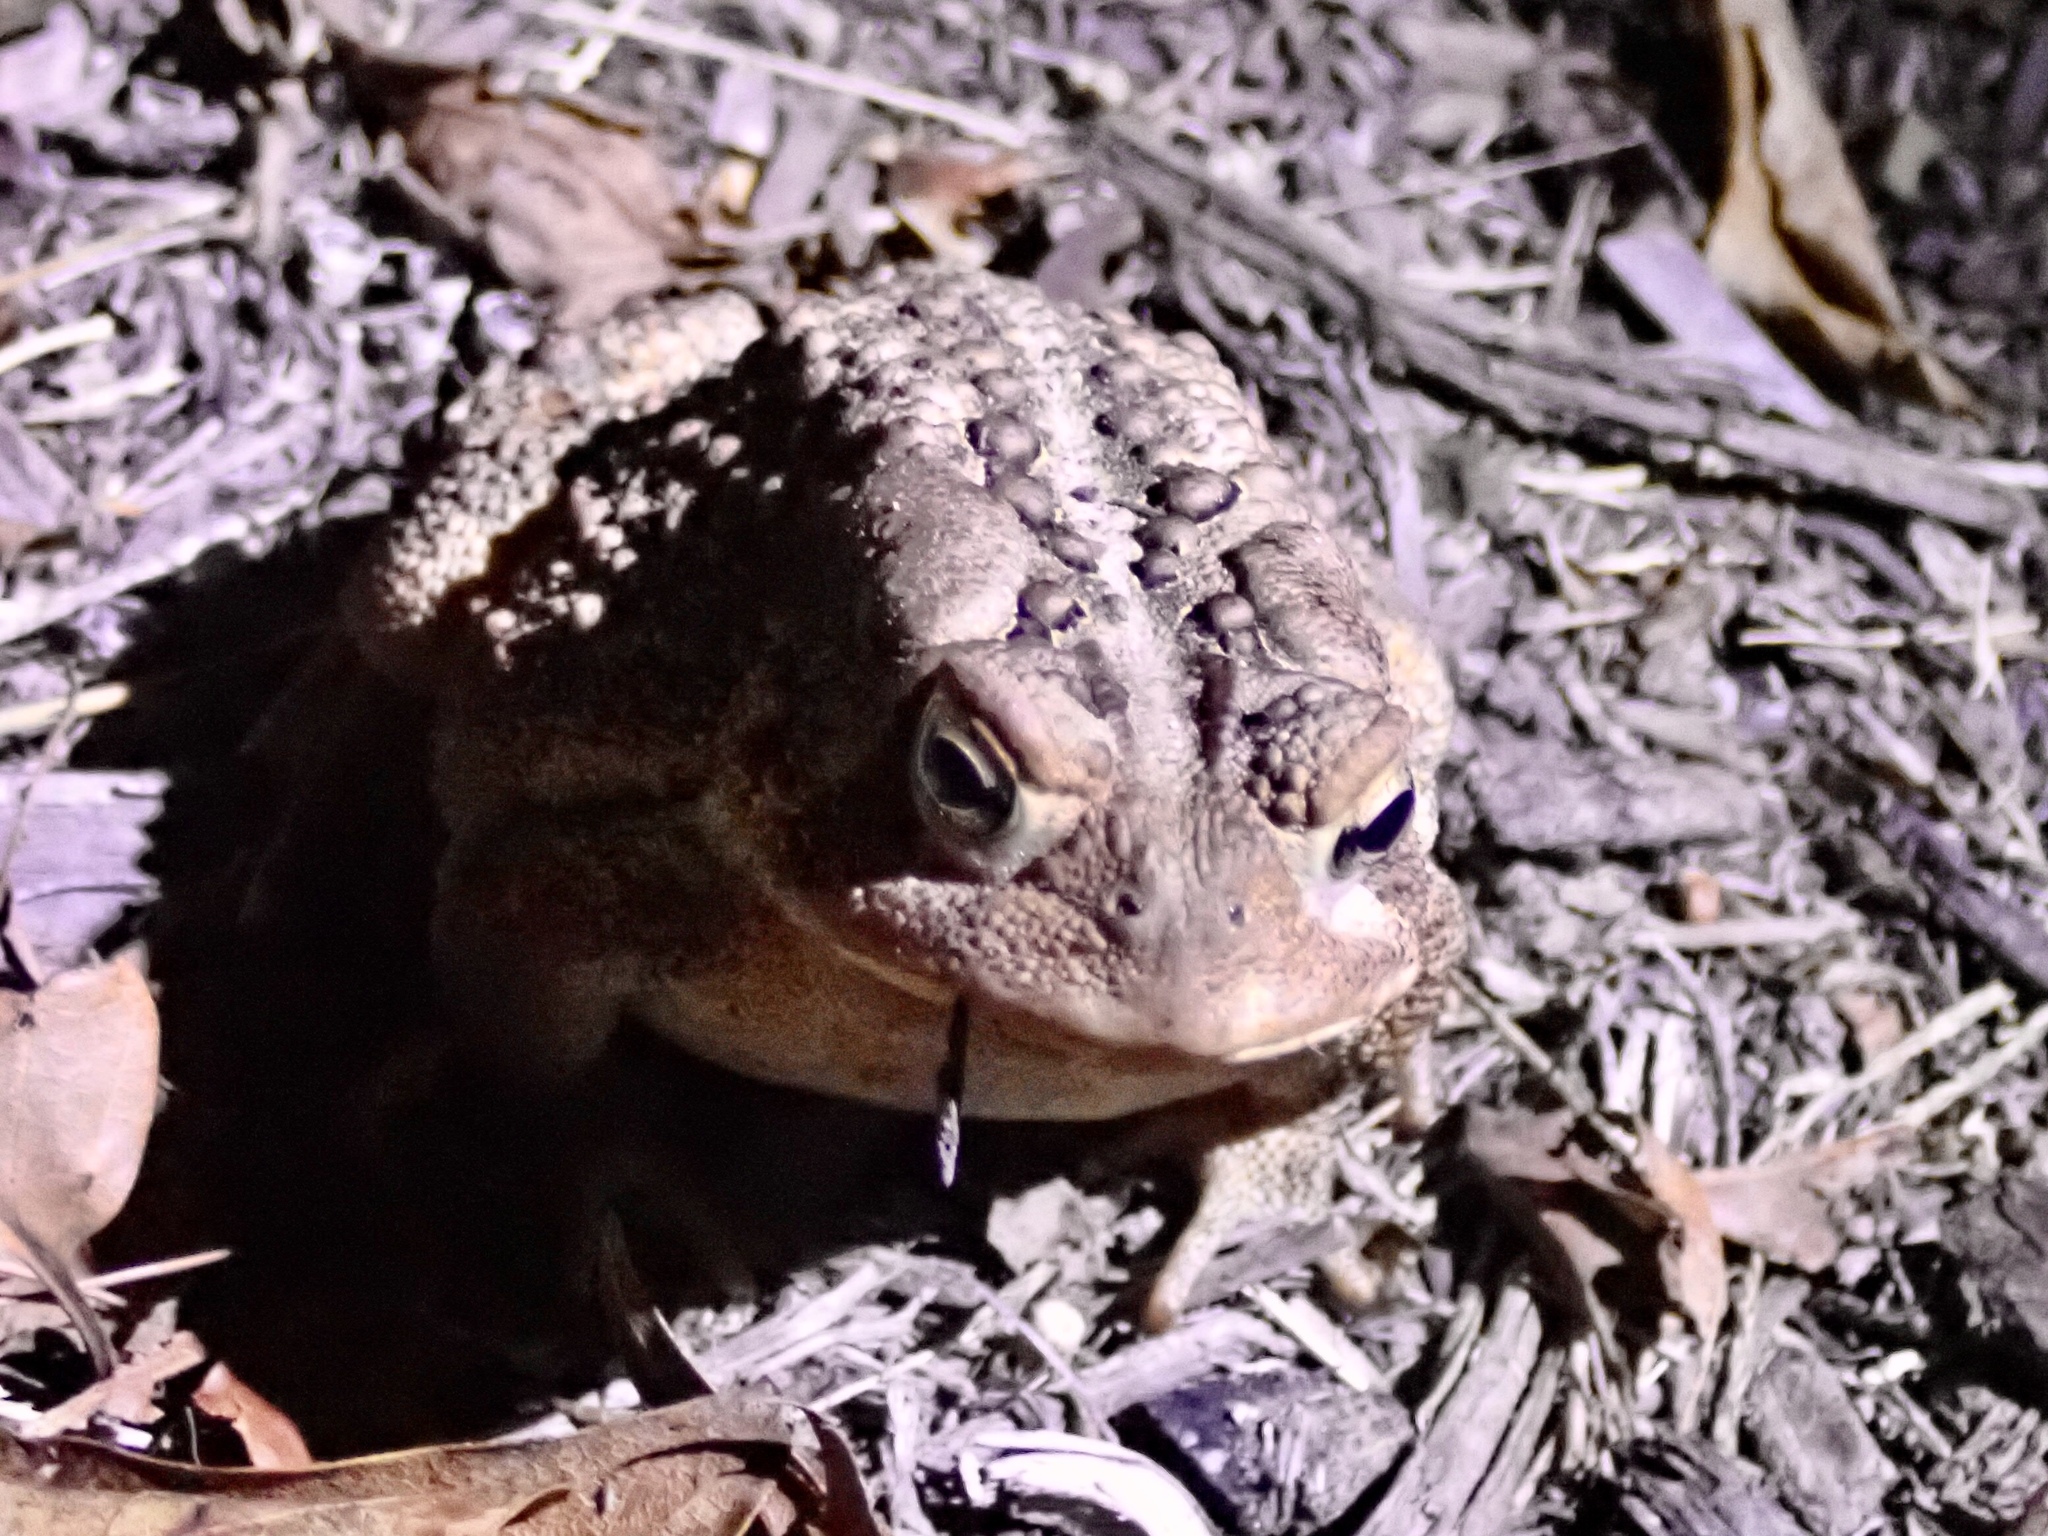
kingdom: Animalia
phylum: Chordata
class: Amphibia
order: Anura
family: Bufonidae
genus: Anaxyrus
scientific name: Anaxyrus americanus
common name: American toad
